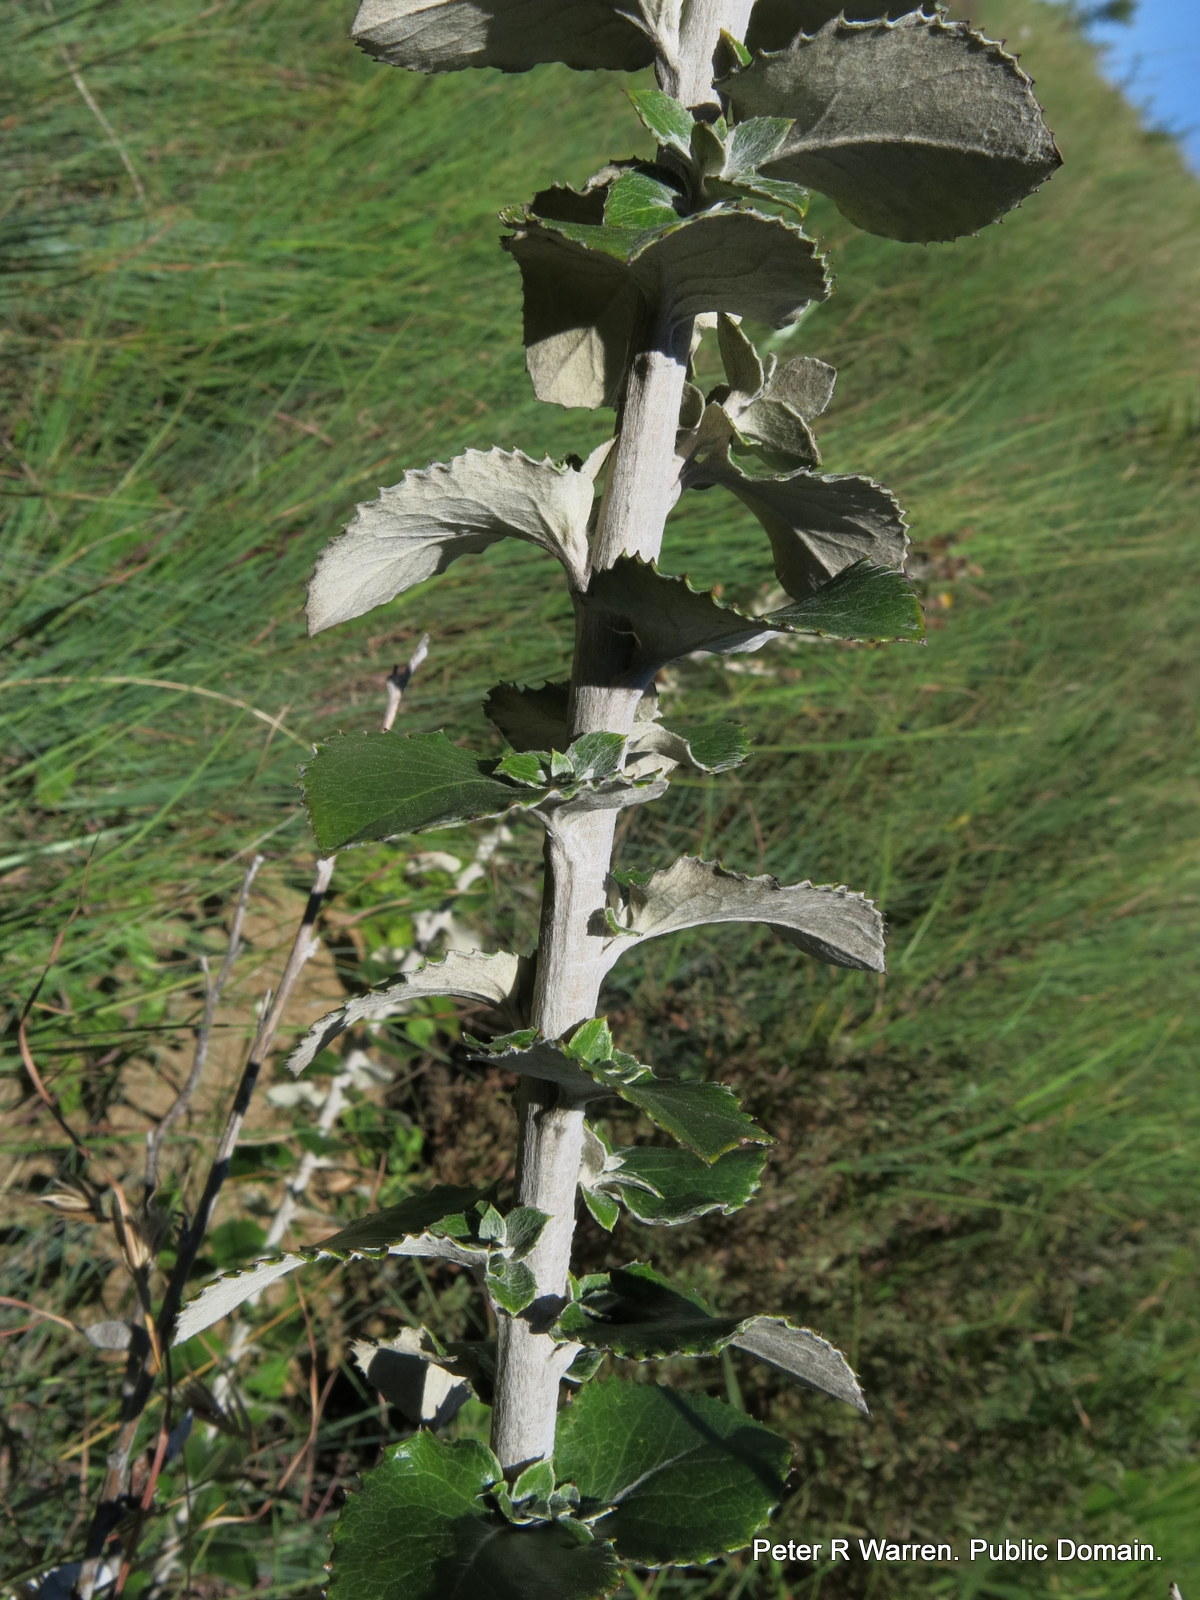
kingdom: Plantae
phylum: Tracheophyta
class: Magnoliopsida
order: Asterales
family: Asteraceae
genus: Printzia
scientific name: Printzia pyrifolia
